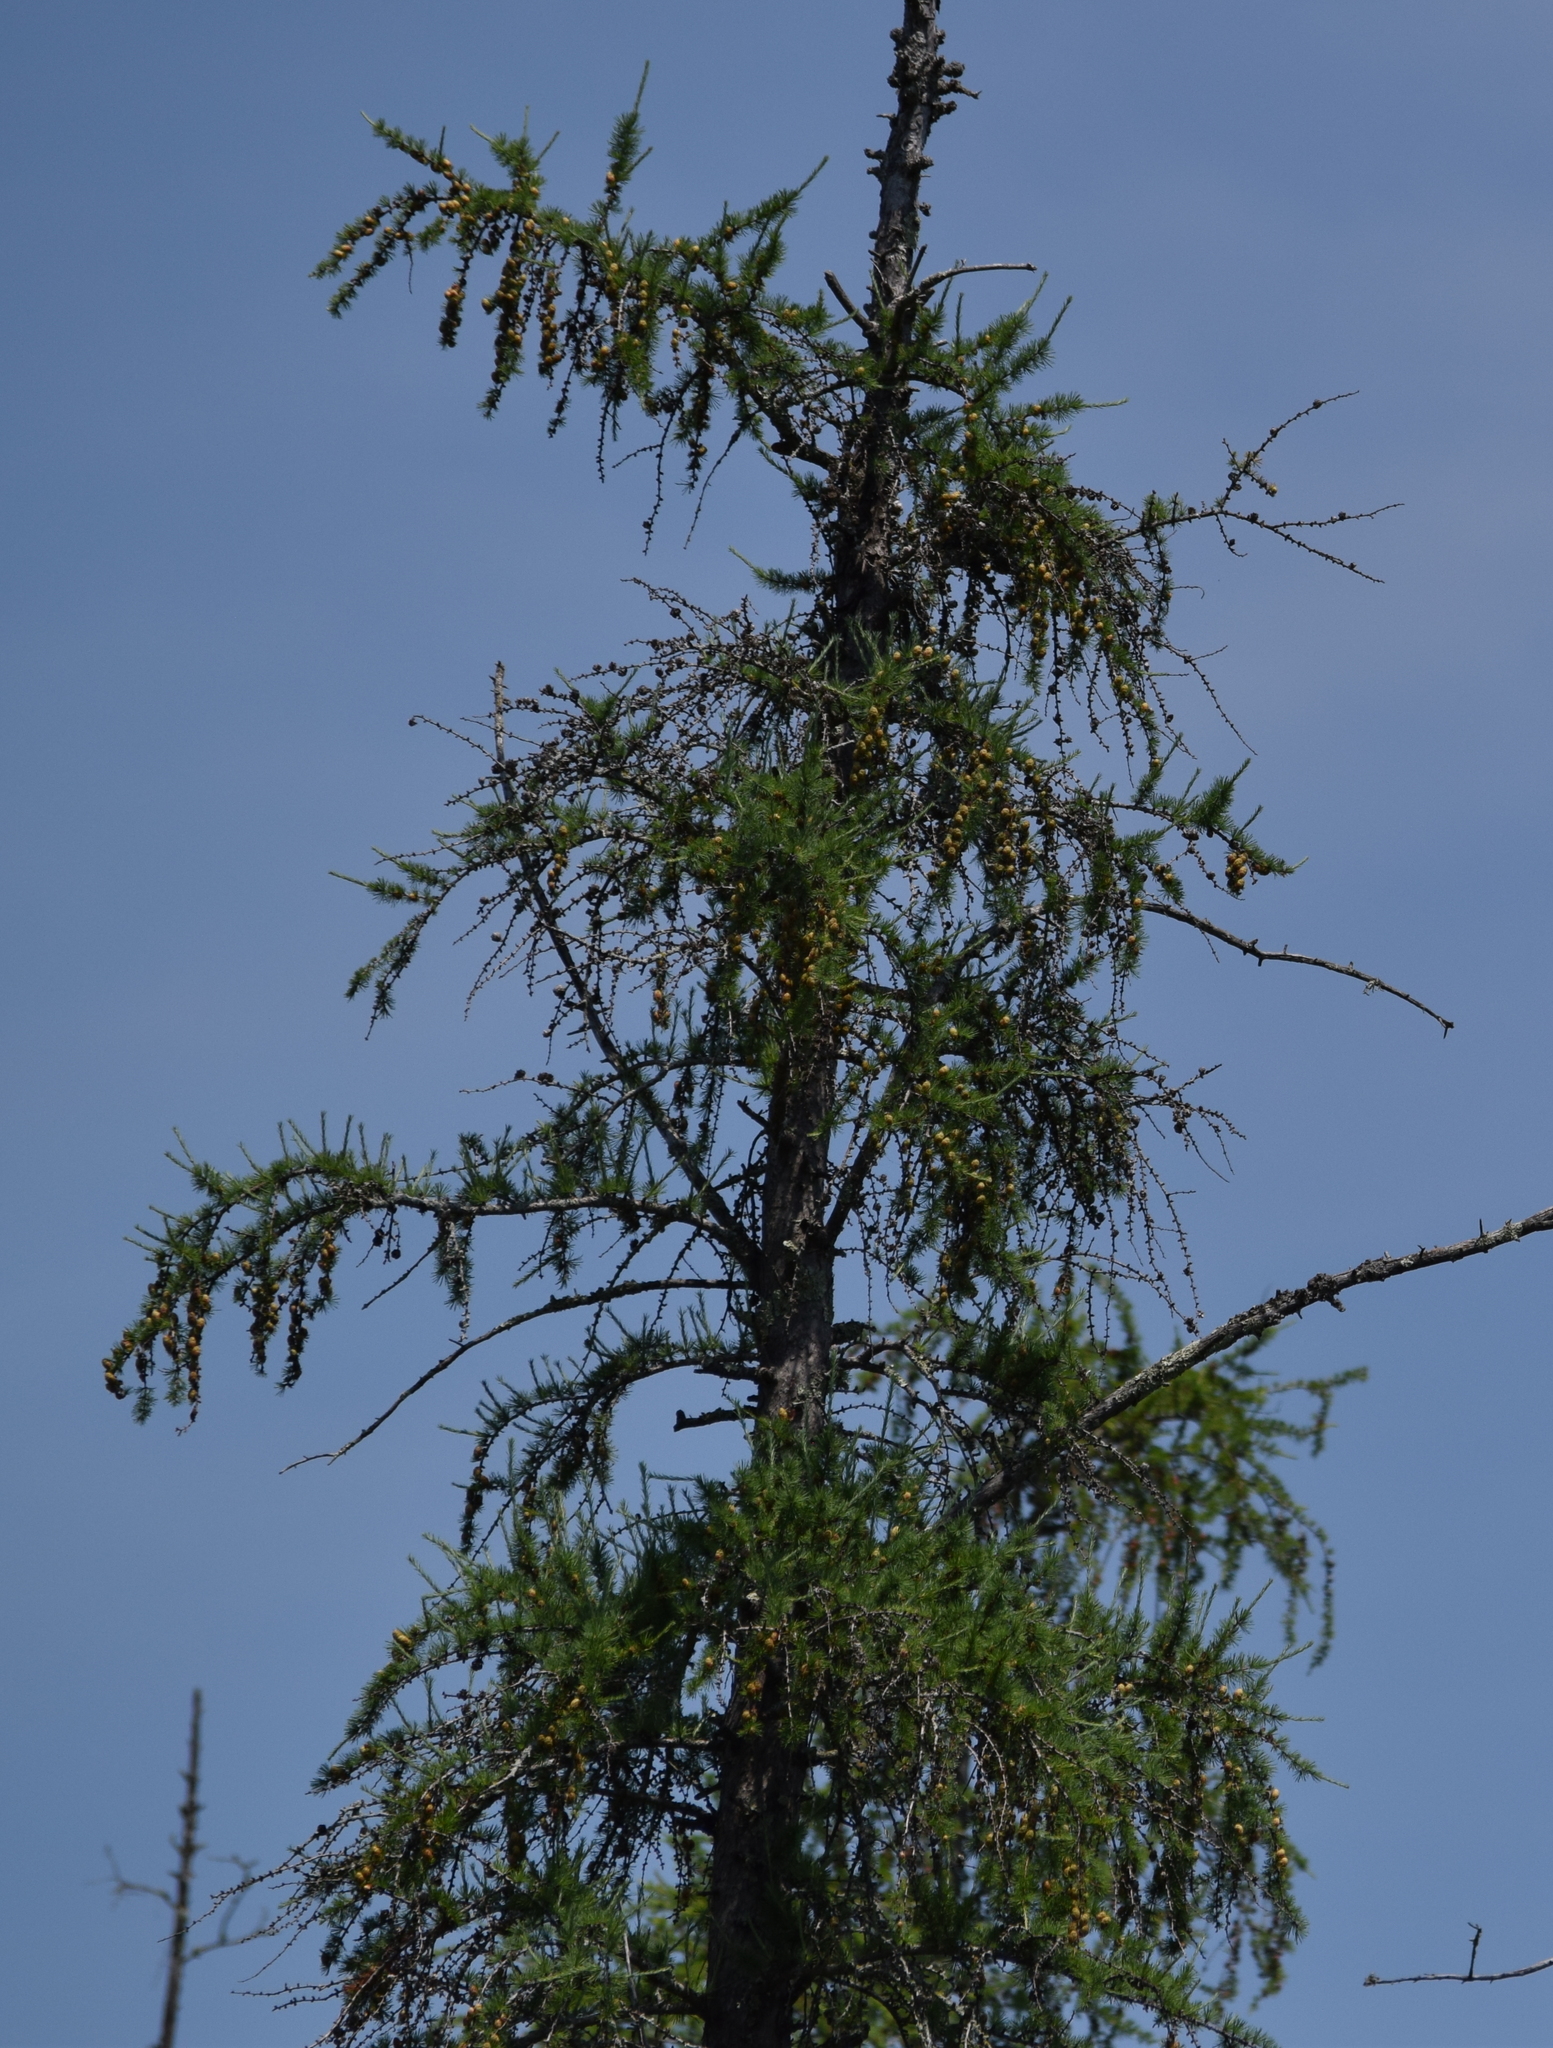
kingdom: Plantae
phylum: Tracheophyta
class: Pinopsida
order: Pinales
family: Pinaceae
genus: Larix
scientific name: Larix laricina
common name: American larch
